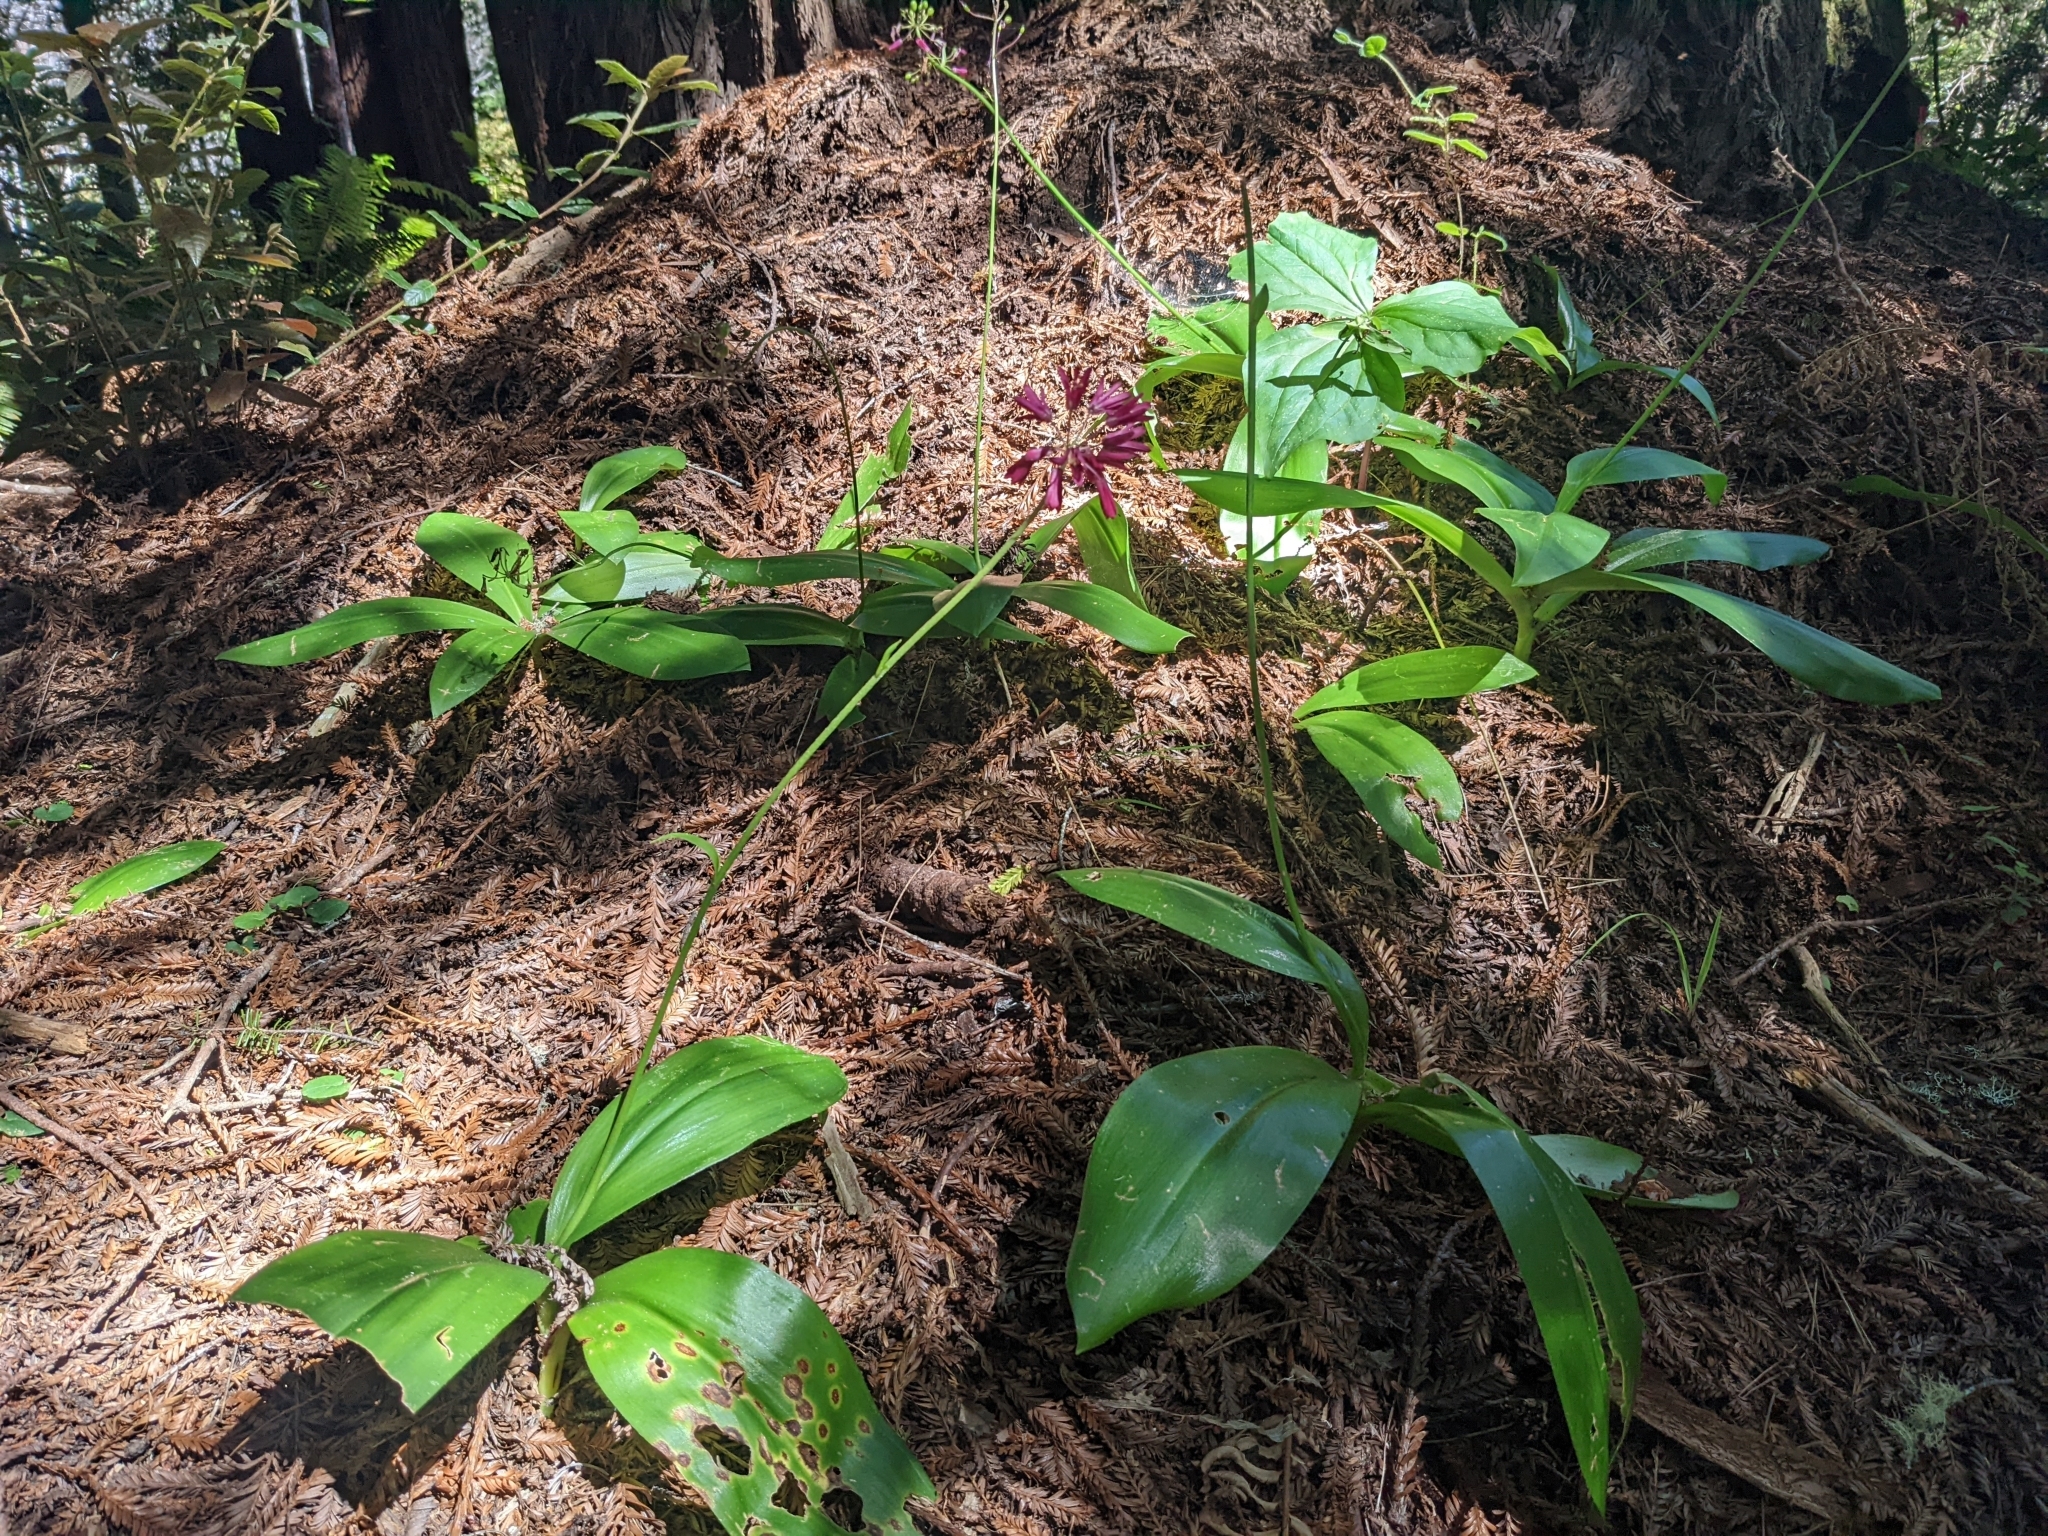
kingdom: Plantae
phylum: Tracheophyta
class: Liliopsida
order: Liliales
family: Liliaceae
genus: Clintonia
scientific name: Clintonia andrewsiana
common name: Red clintonia
